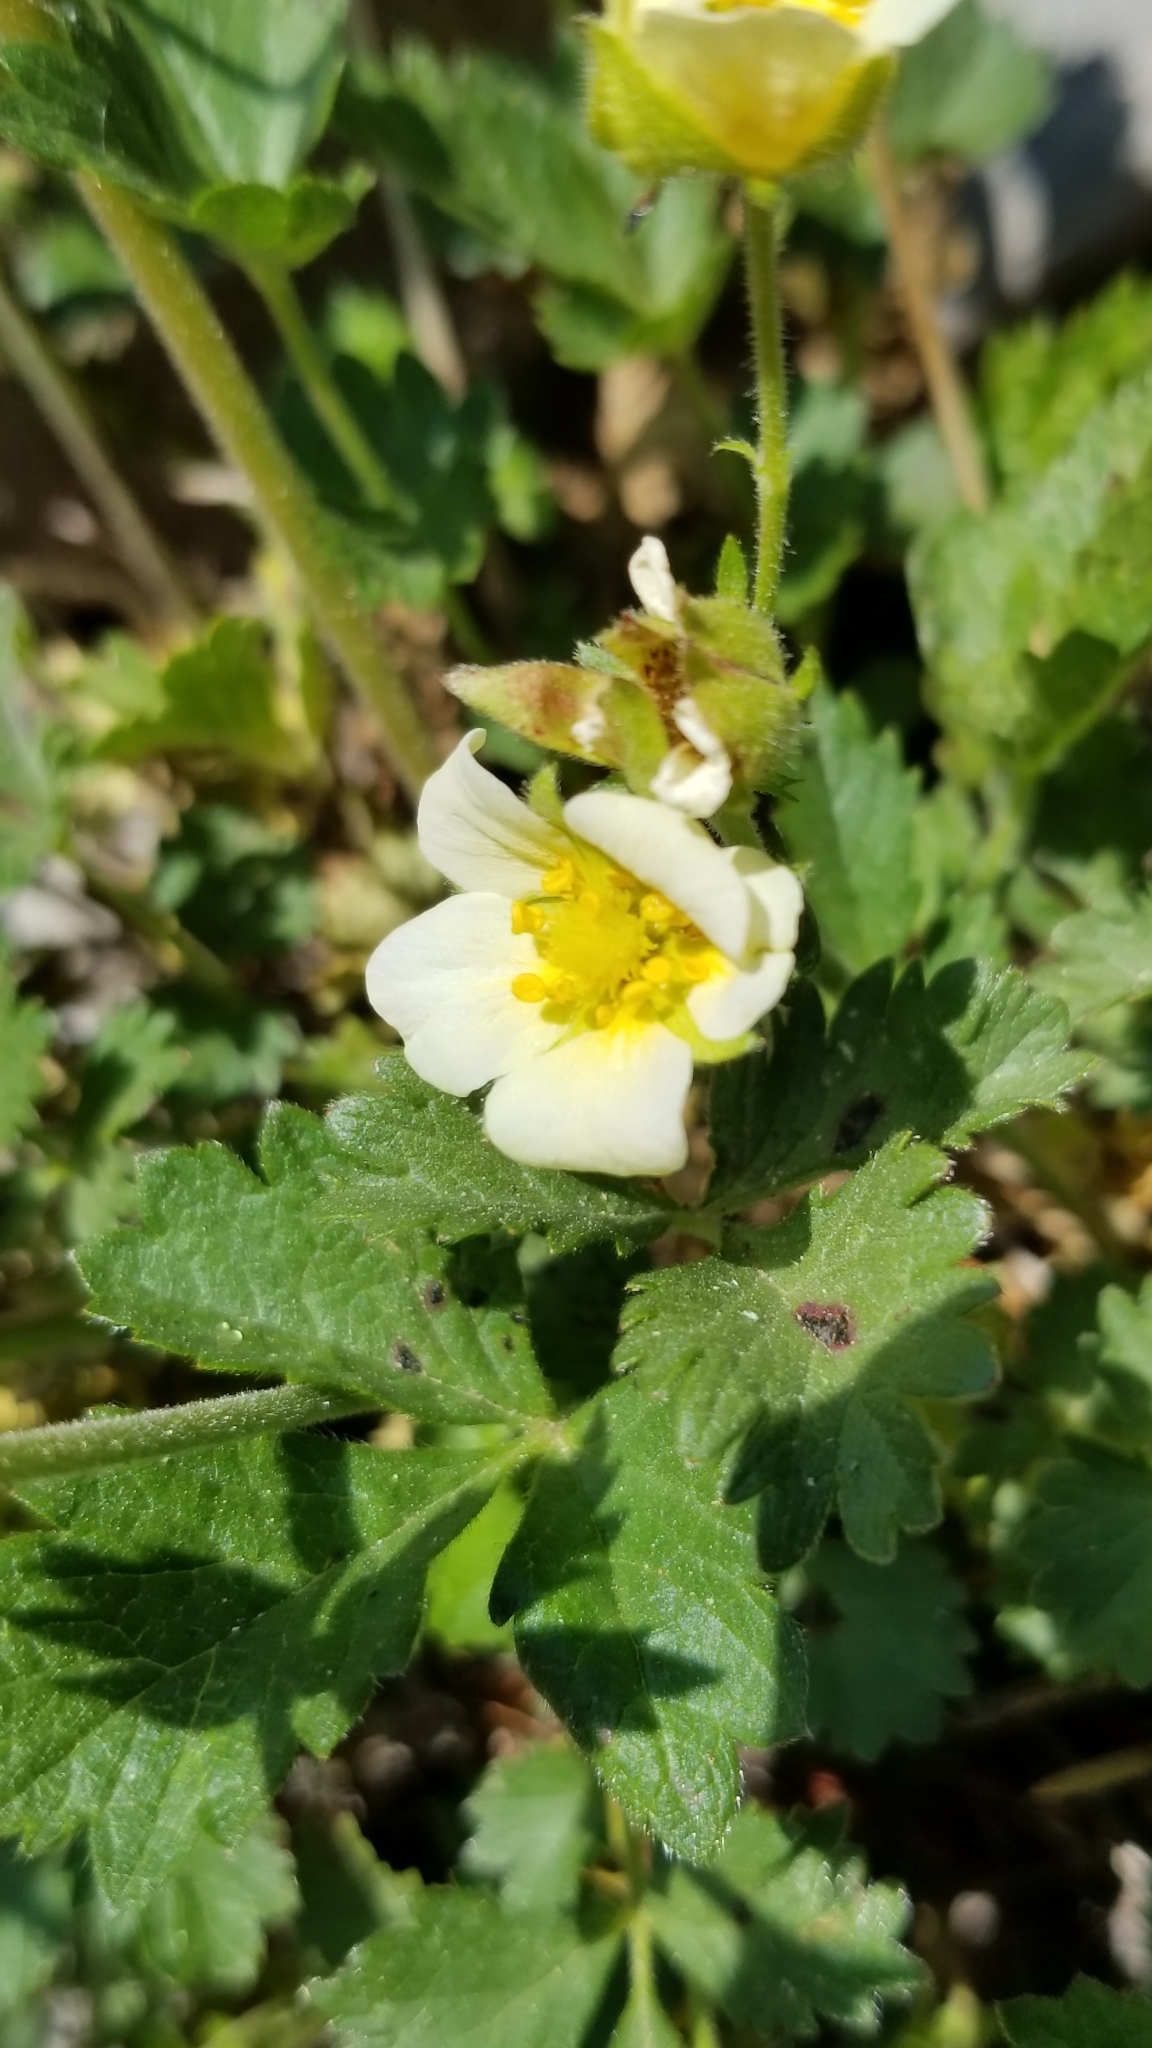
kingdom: Plantae
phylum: Tracheophyta
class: Magnoliopsida
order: Rosales
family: Rosaceae
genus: Drymocallis
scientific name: Drymocallis glandulosa
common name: Sticky cinquefoil
